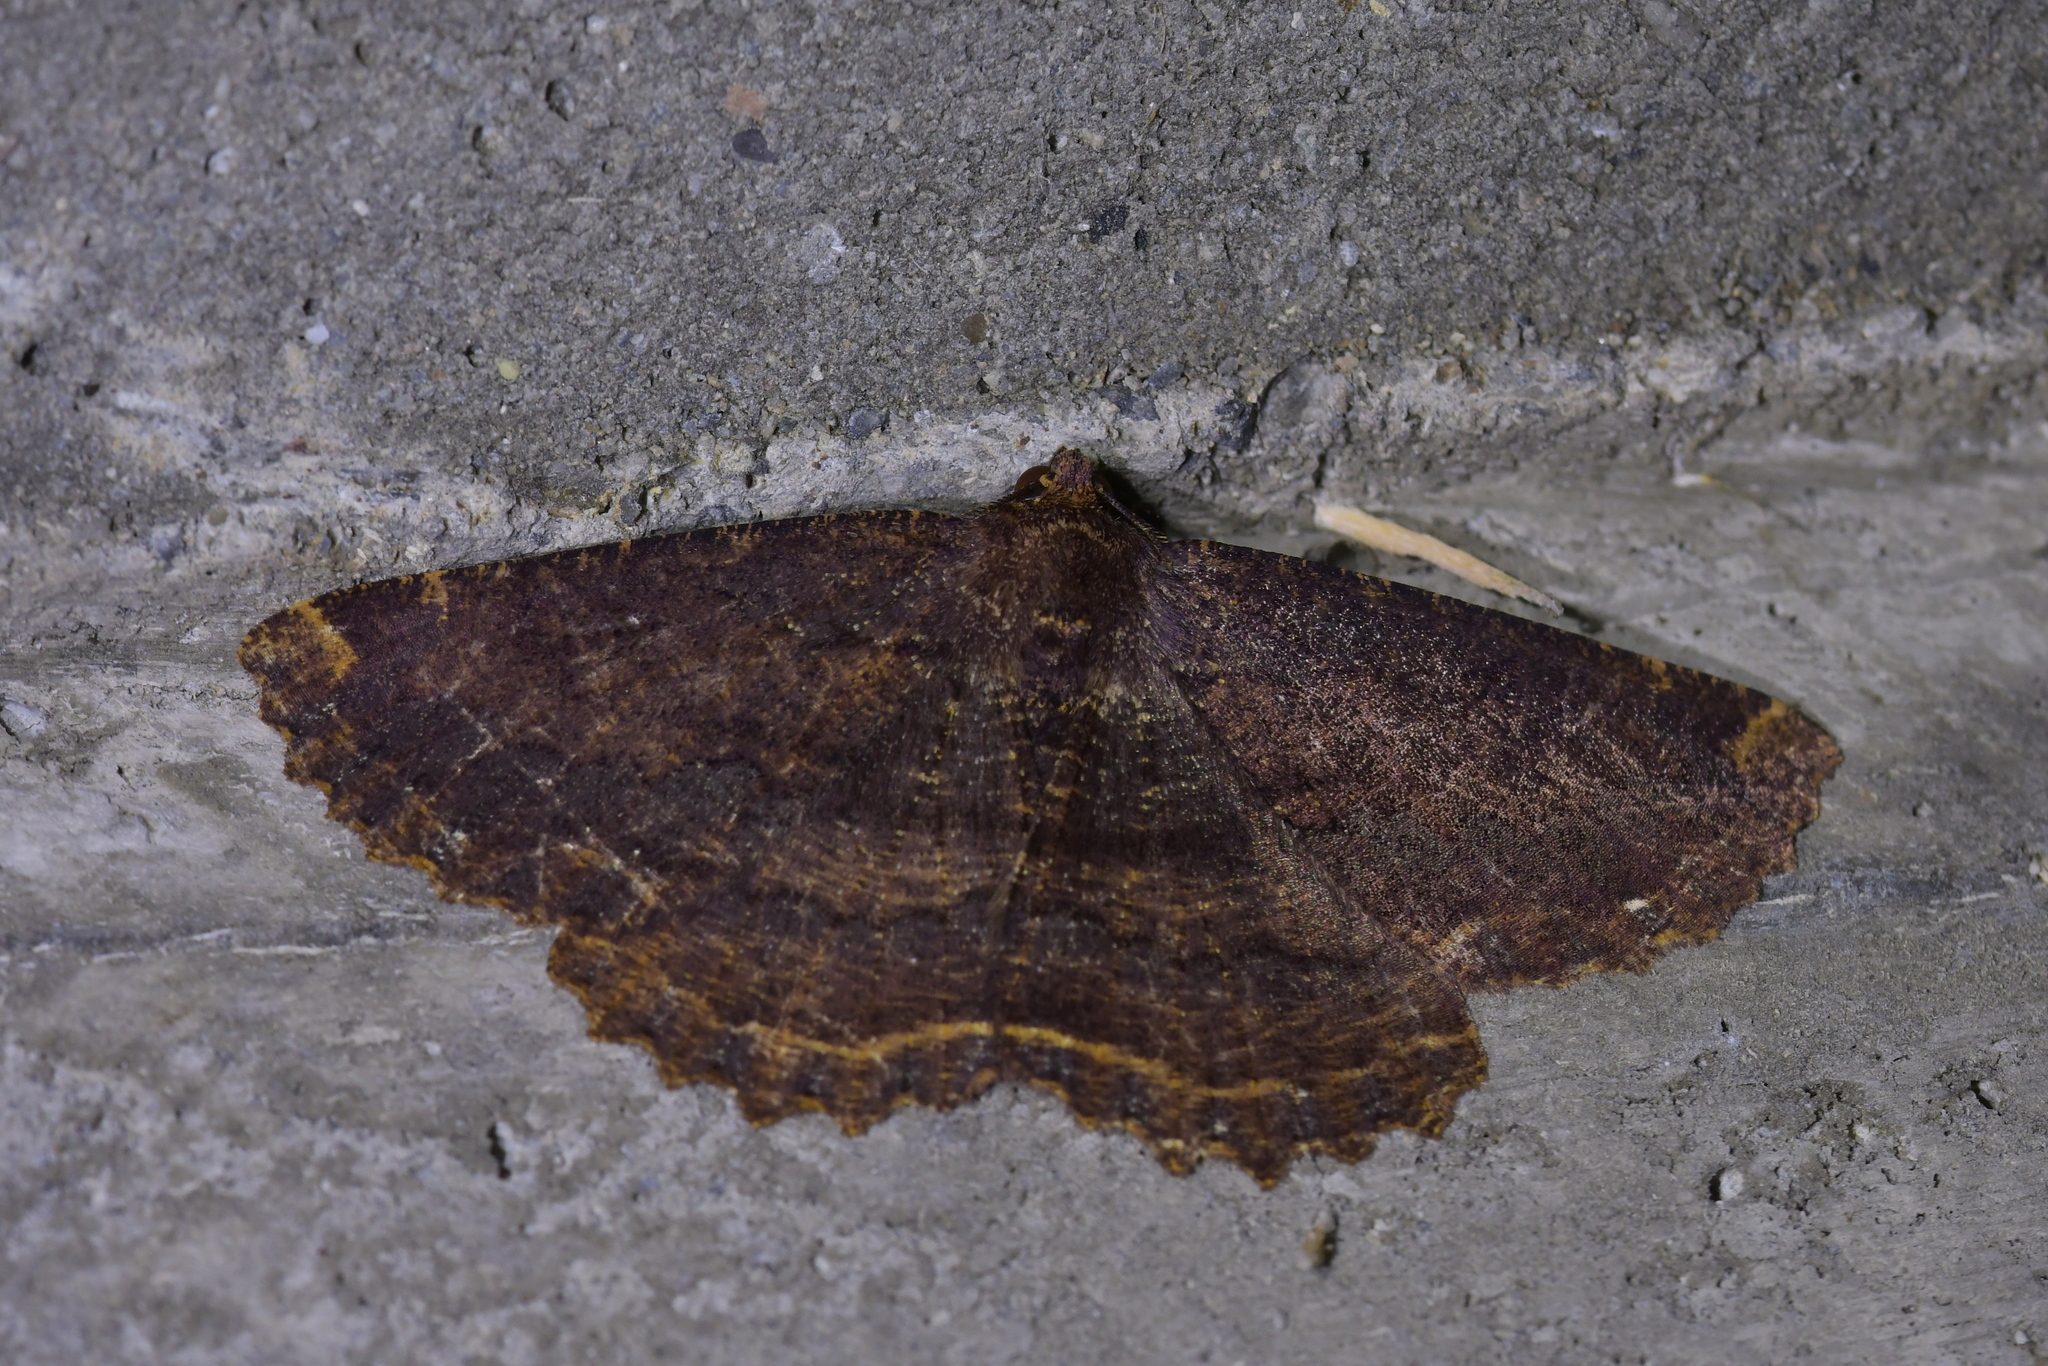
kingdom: Animalia
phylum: Arthropoda
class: Insecta
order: Lepidoptera
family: Geometridae
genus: Gellonia
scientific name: Gellonia dejectaria
